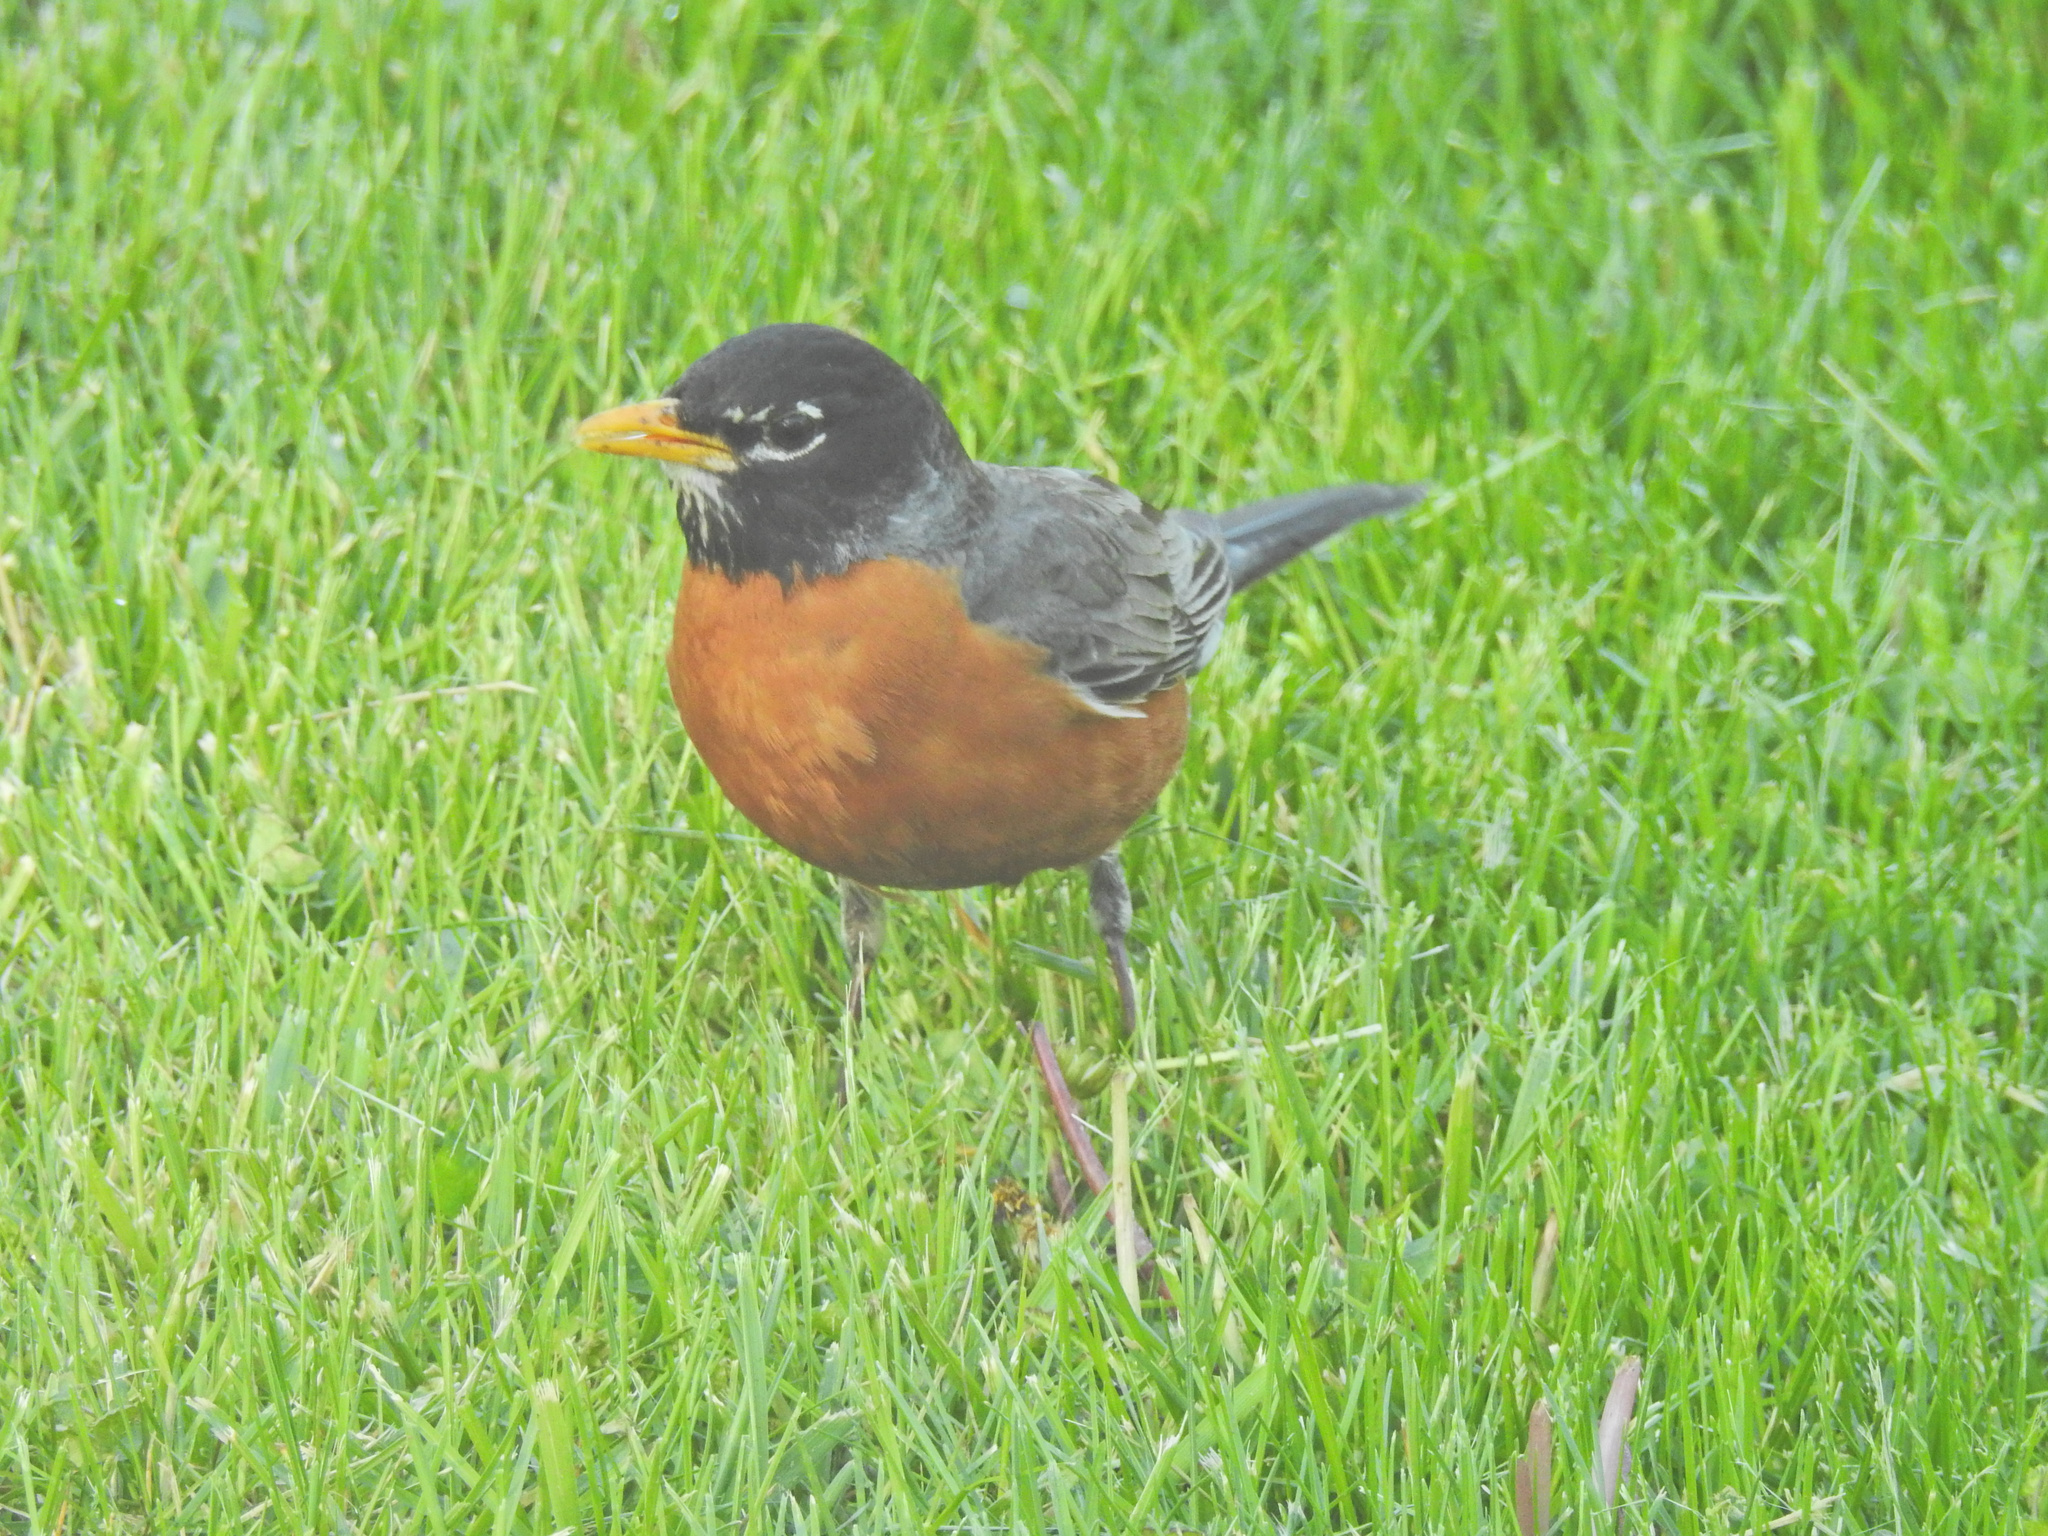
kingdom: Animalia
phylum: Chordata
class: Aves
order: Passeriformes
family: Turdidae
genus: Turdus
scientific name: Turdus migratorius
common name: American robin
